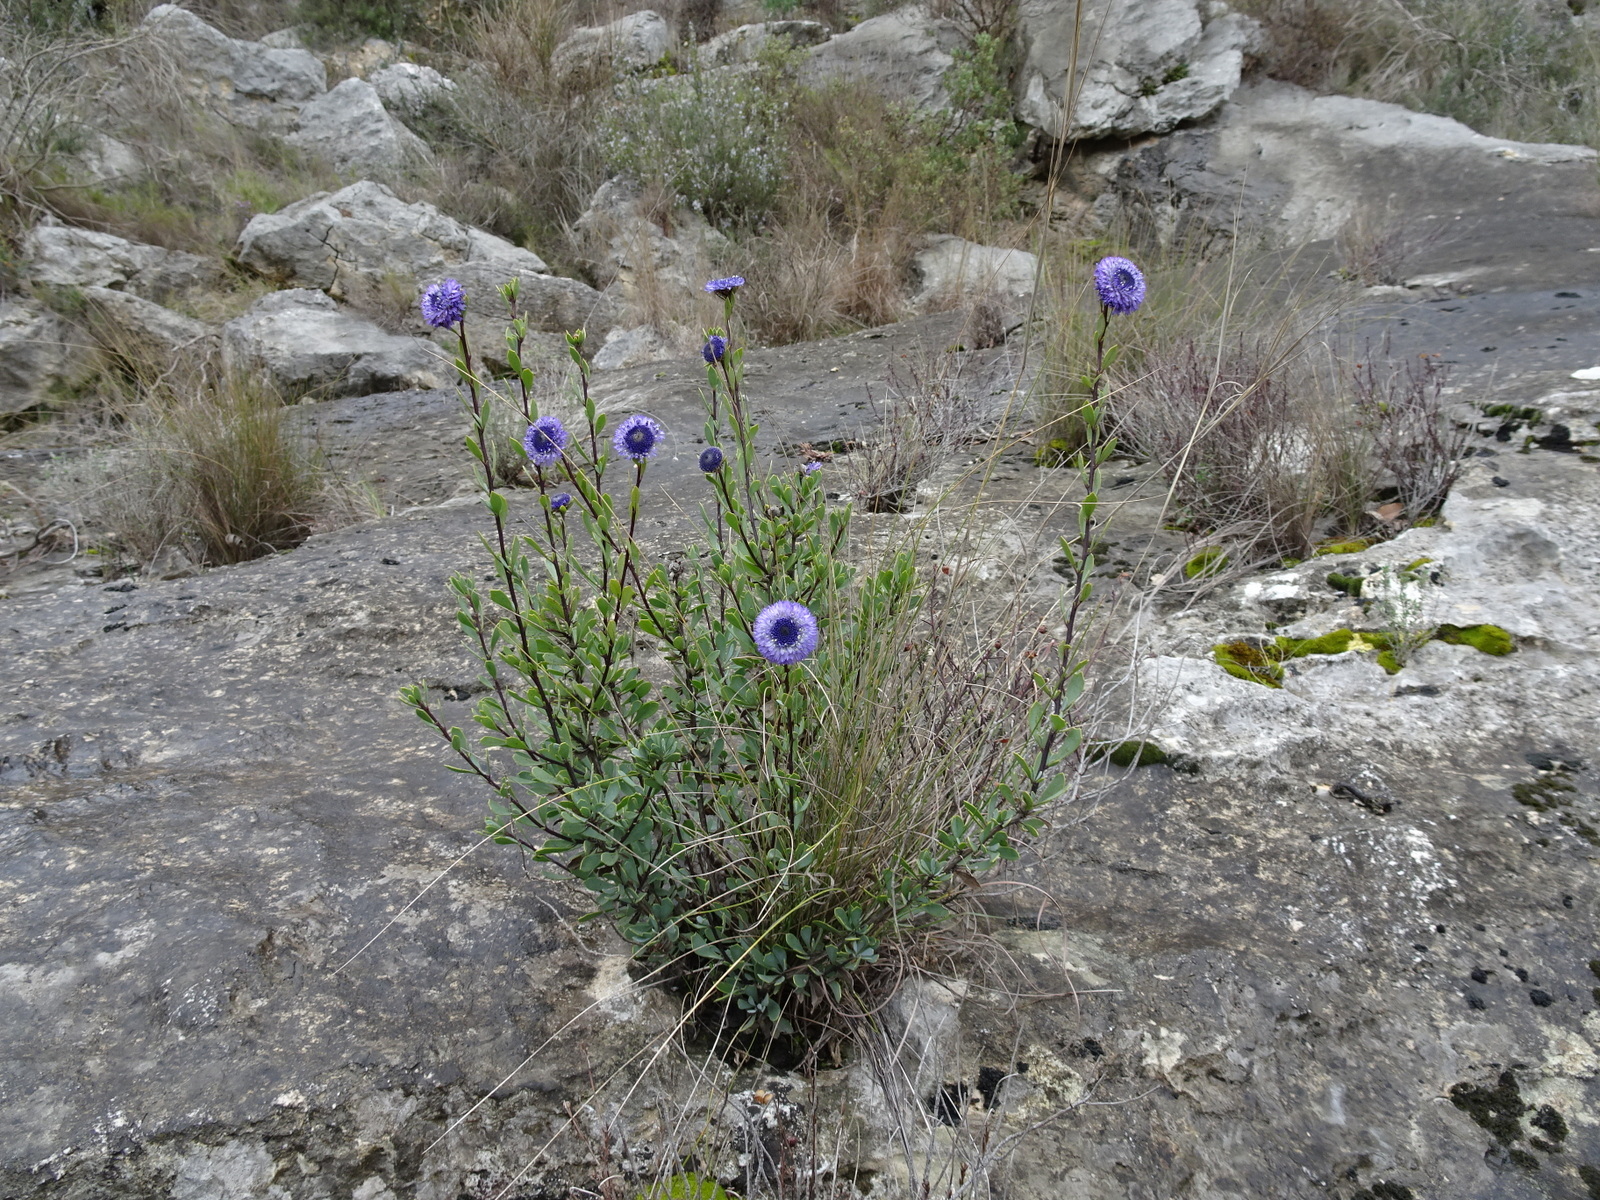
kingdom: Plantae
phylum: Tracheophyta
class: Magnoliopsida
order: Lamiales
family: Plantaginaceae
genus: Globularia
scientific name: Globularia alypum
